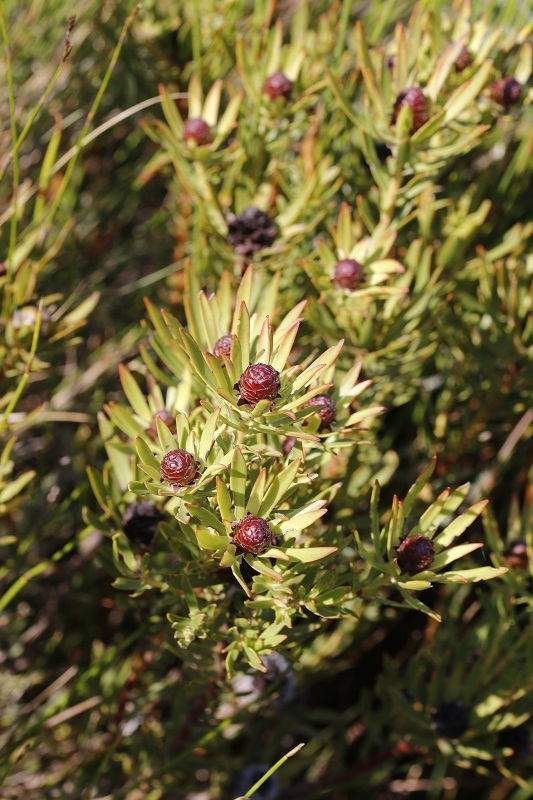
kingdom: Plantae
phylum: Tracheophyta
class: Magnoliopsida
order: Proteales
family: Proteaceae
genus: Leucadendron
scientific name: Leucadendron spissifolium
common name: Spear-leaf conebush
